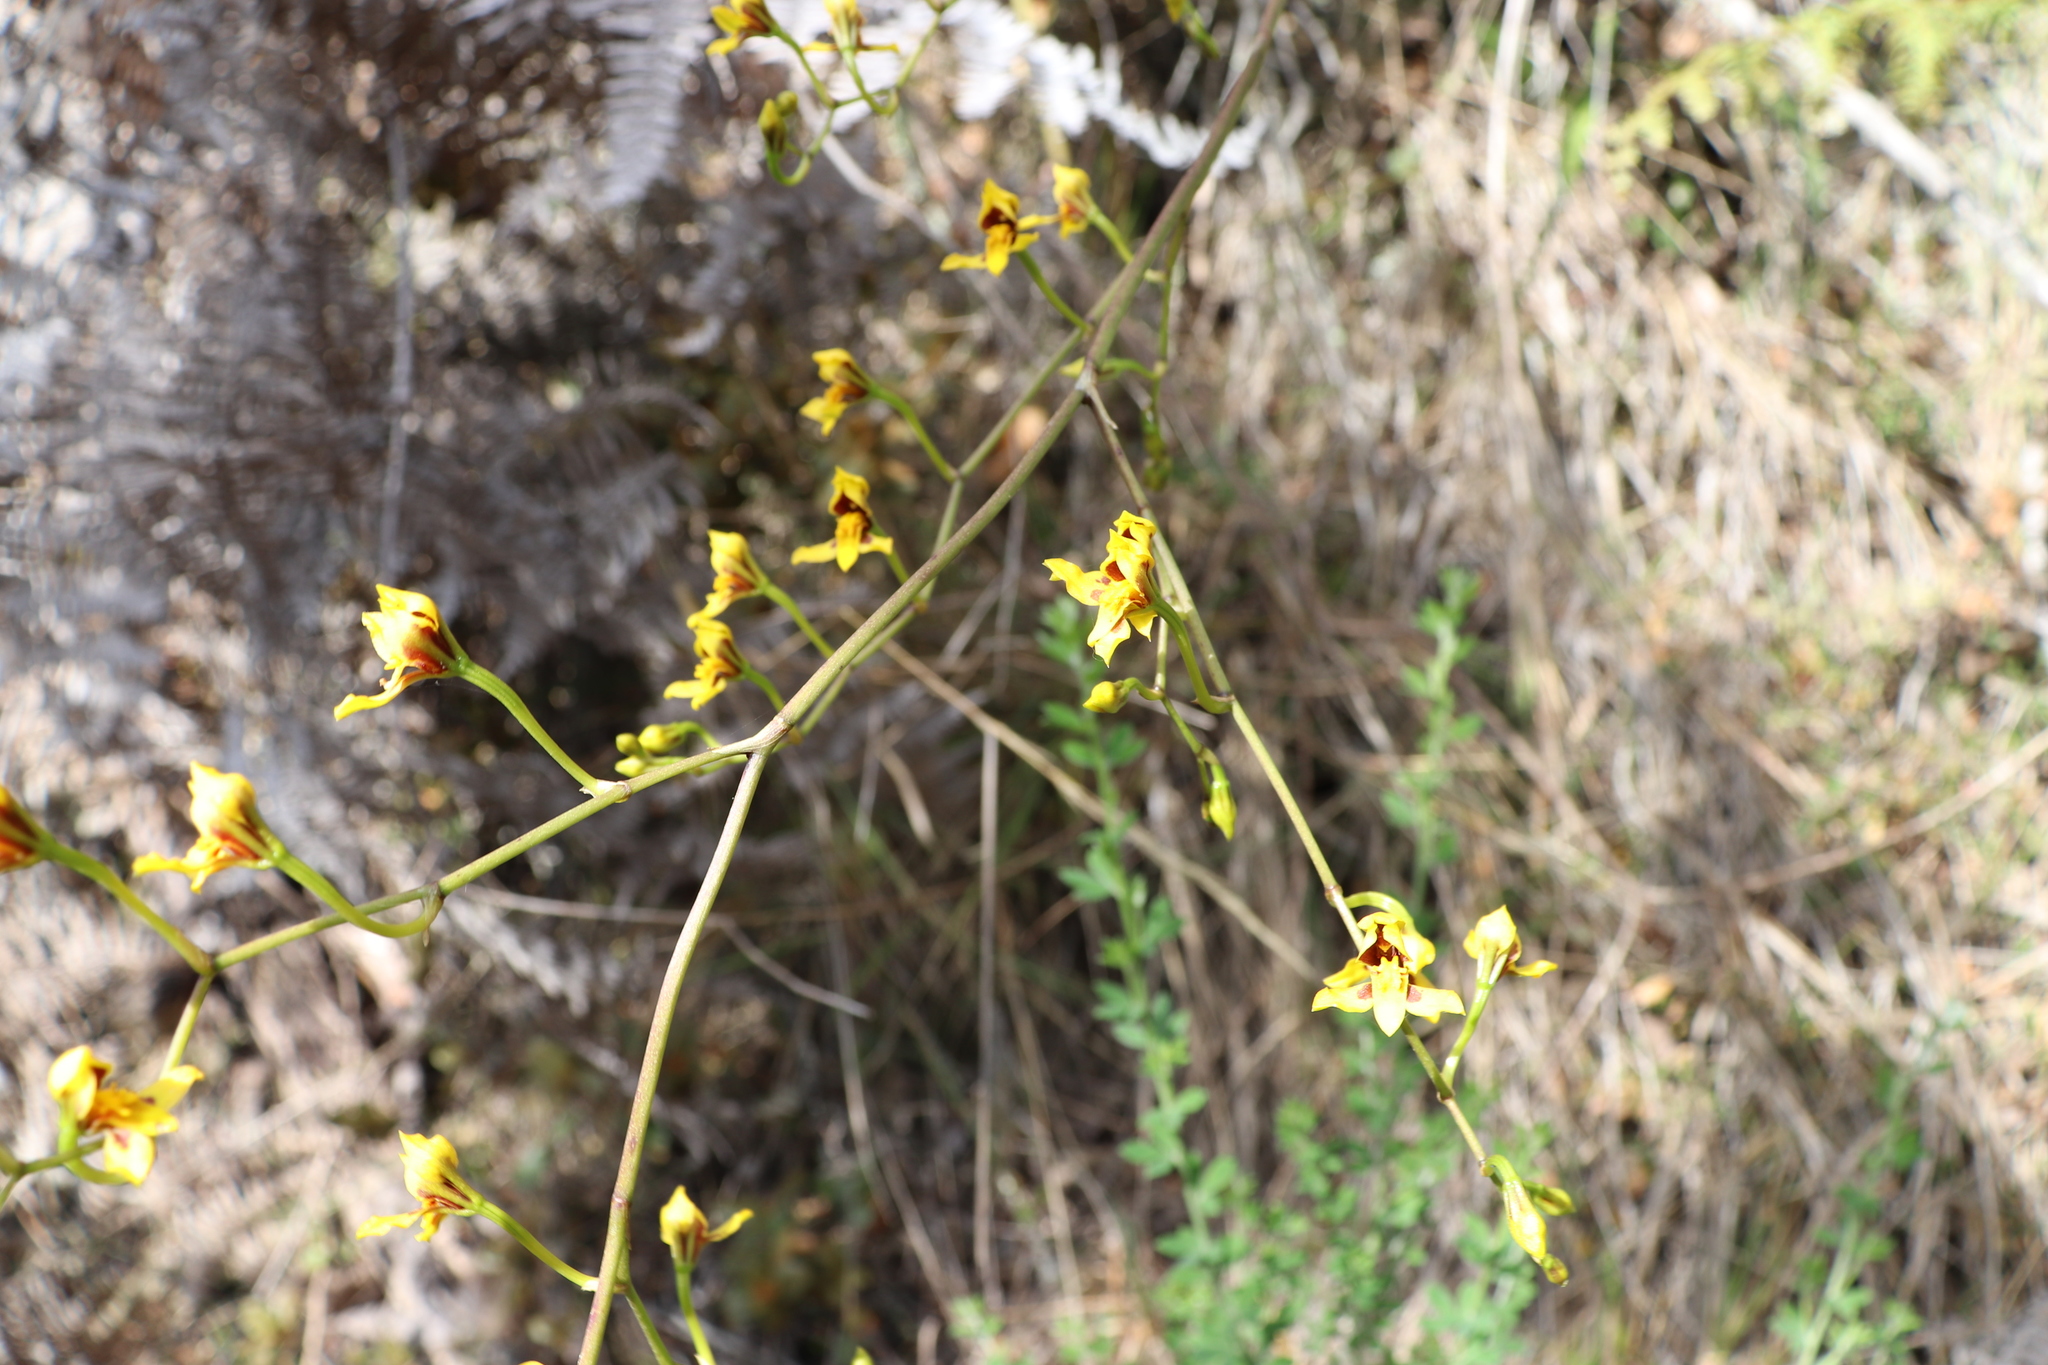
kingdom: Plantae
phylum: Tracheophyta
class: Liliopsida
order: Asparagales
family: Orchidaceae
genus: Cyrtochilum
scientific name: Cyrtochilum densiflorum
